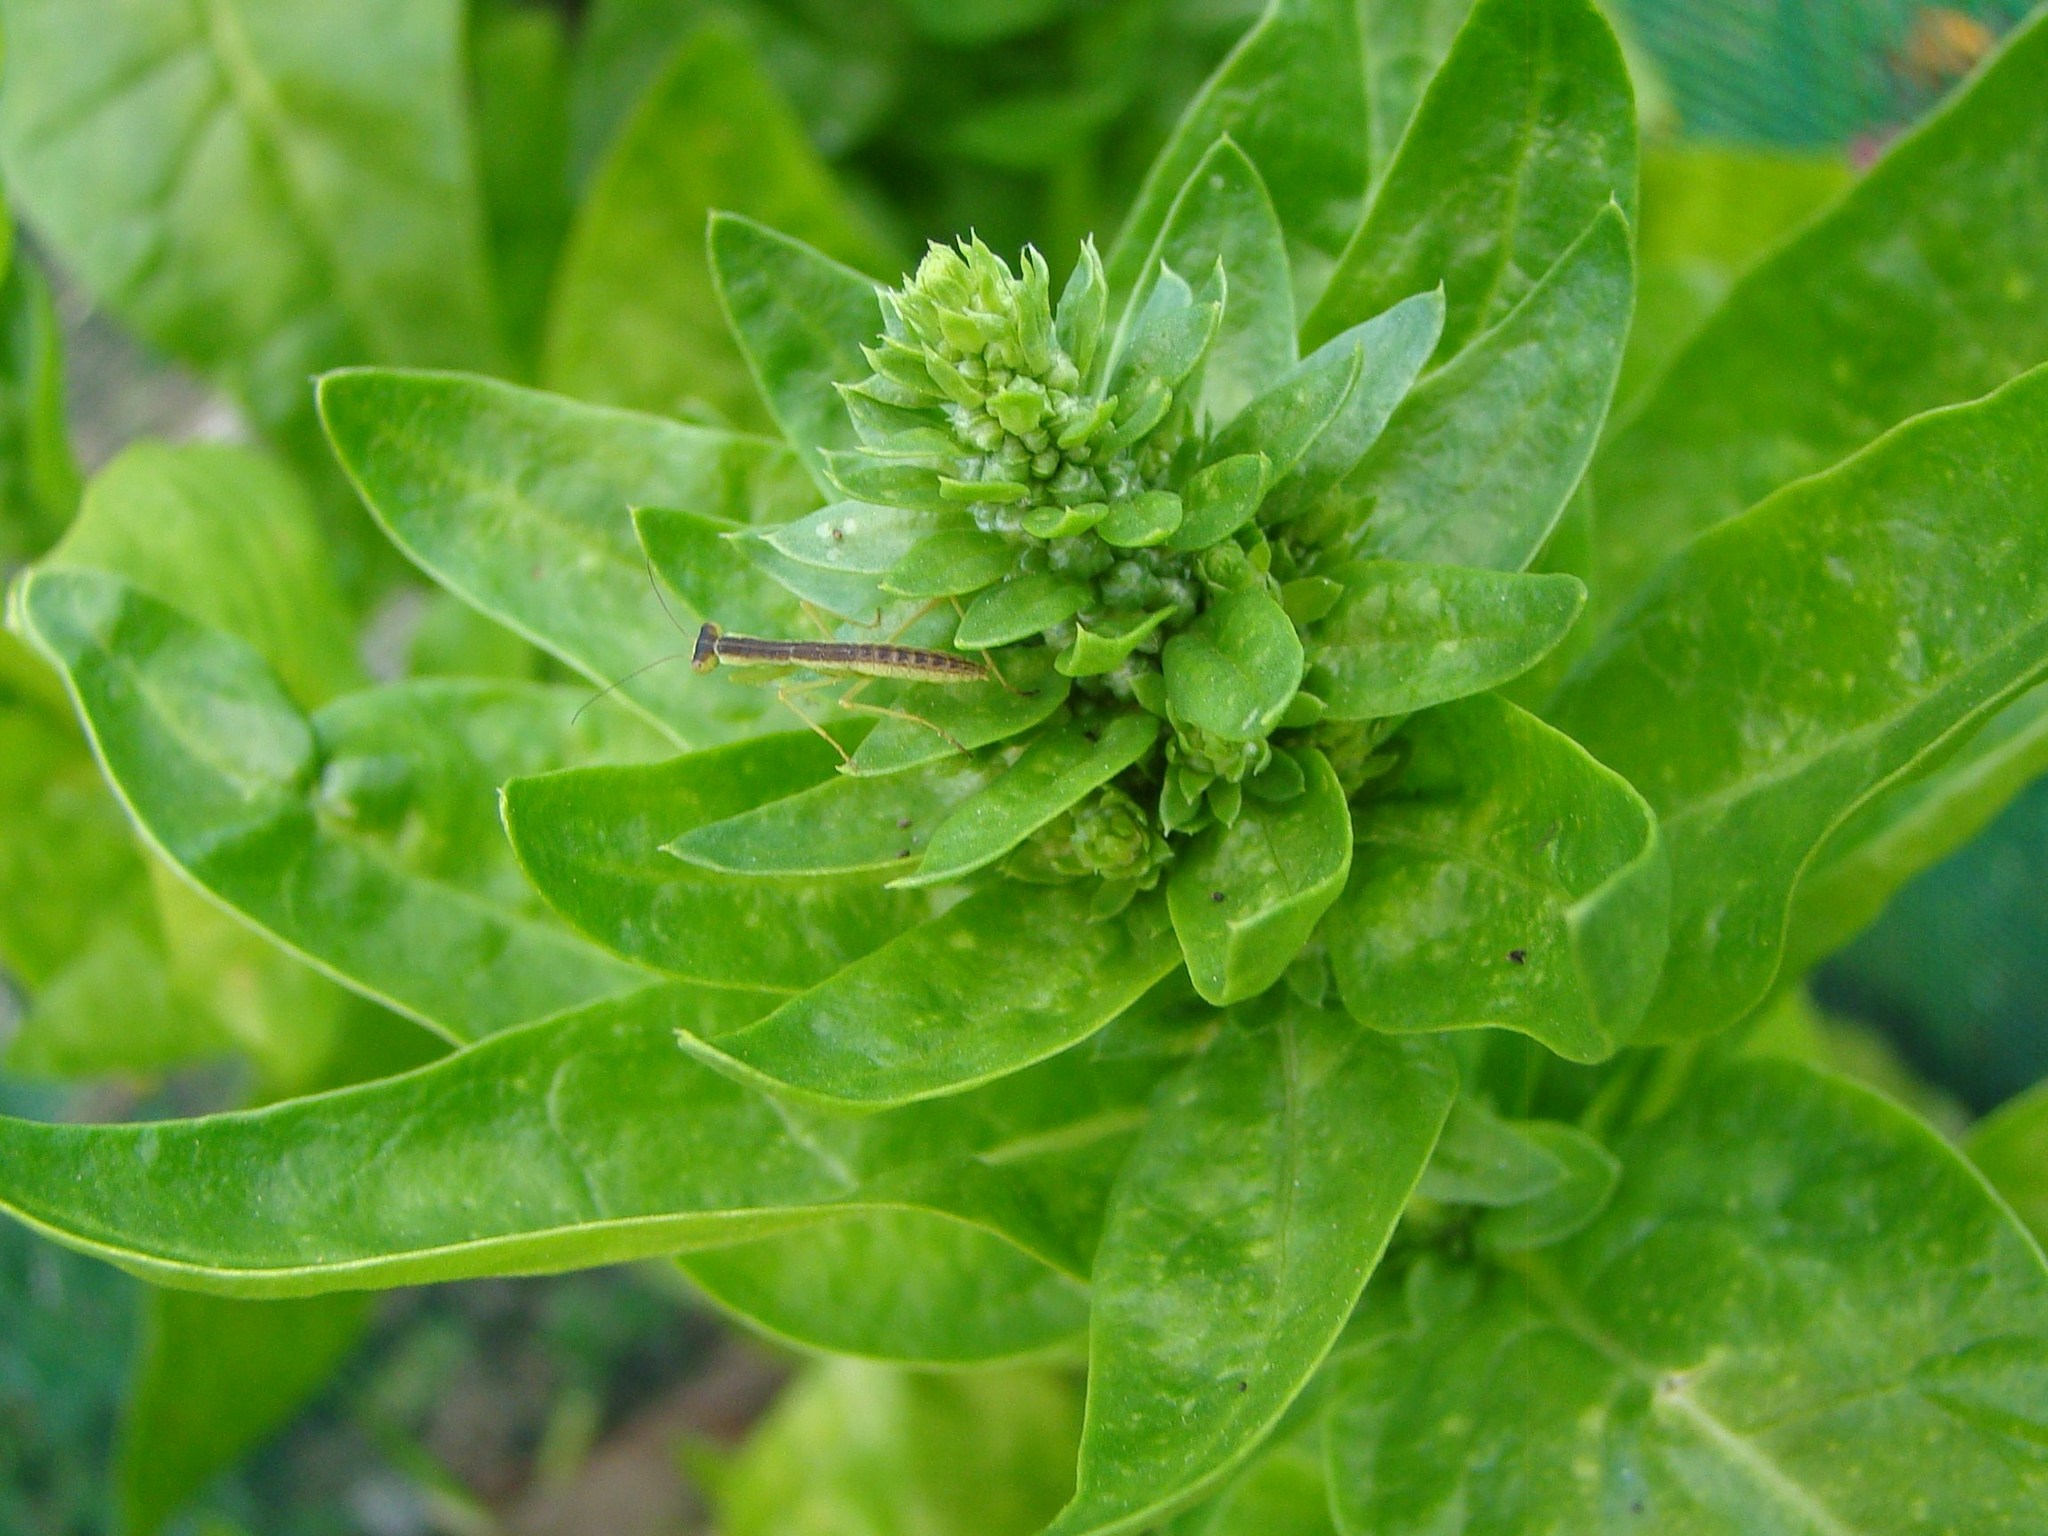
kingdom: Animalia
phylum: Arthropoda
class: Insecta
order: Mantodea
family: Mantidae
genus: Orthodera
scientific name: Orthodera novaezealandiae
